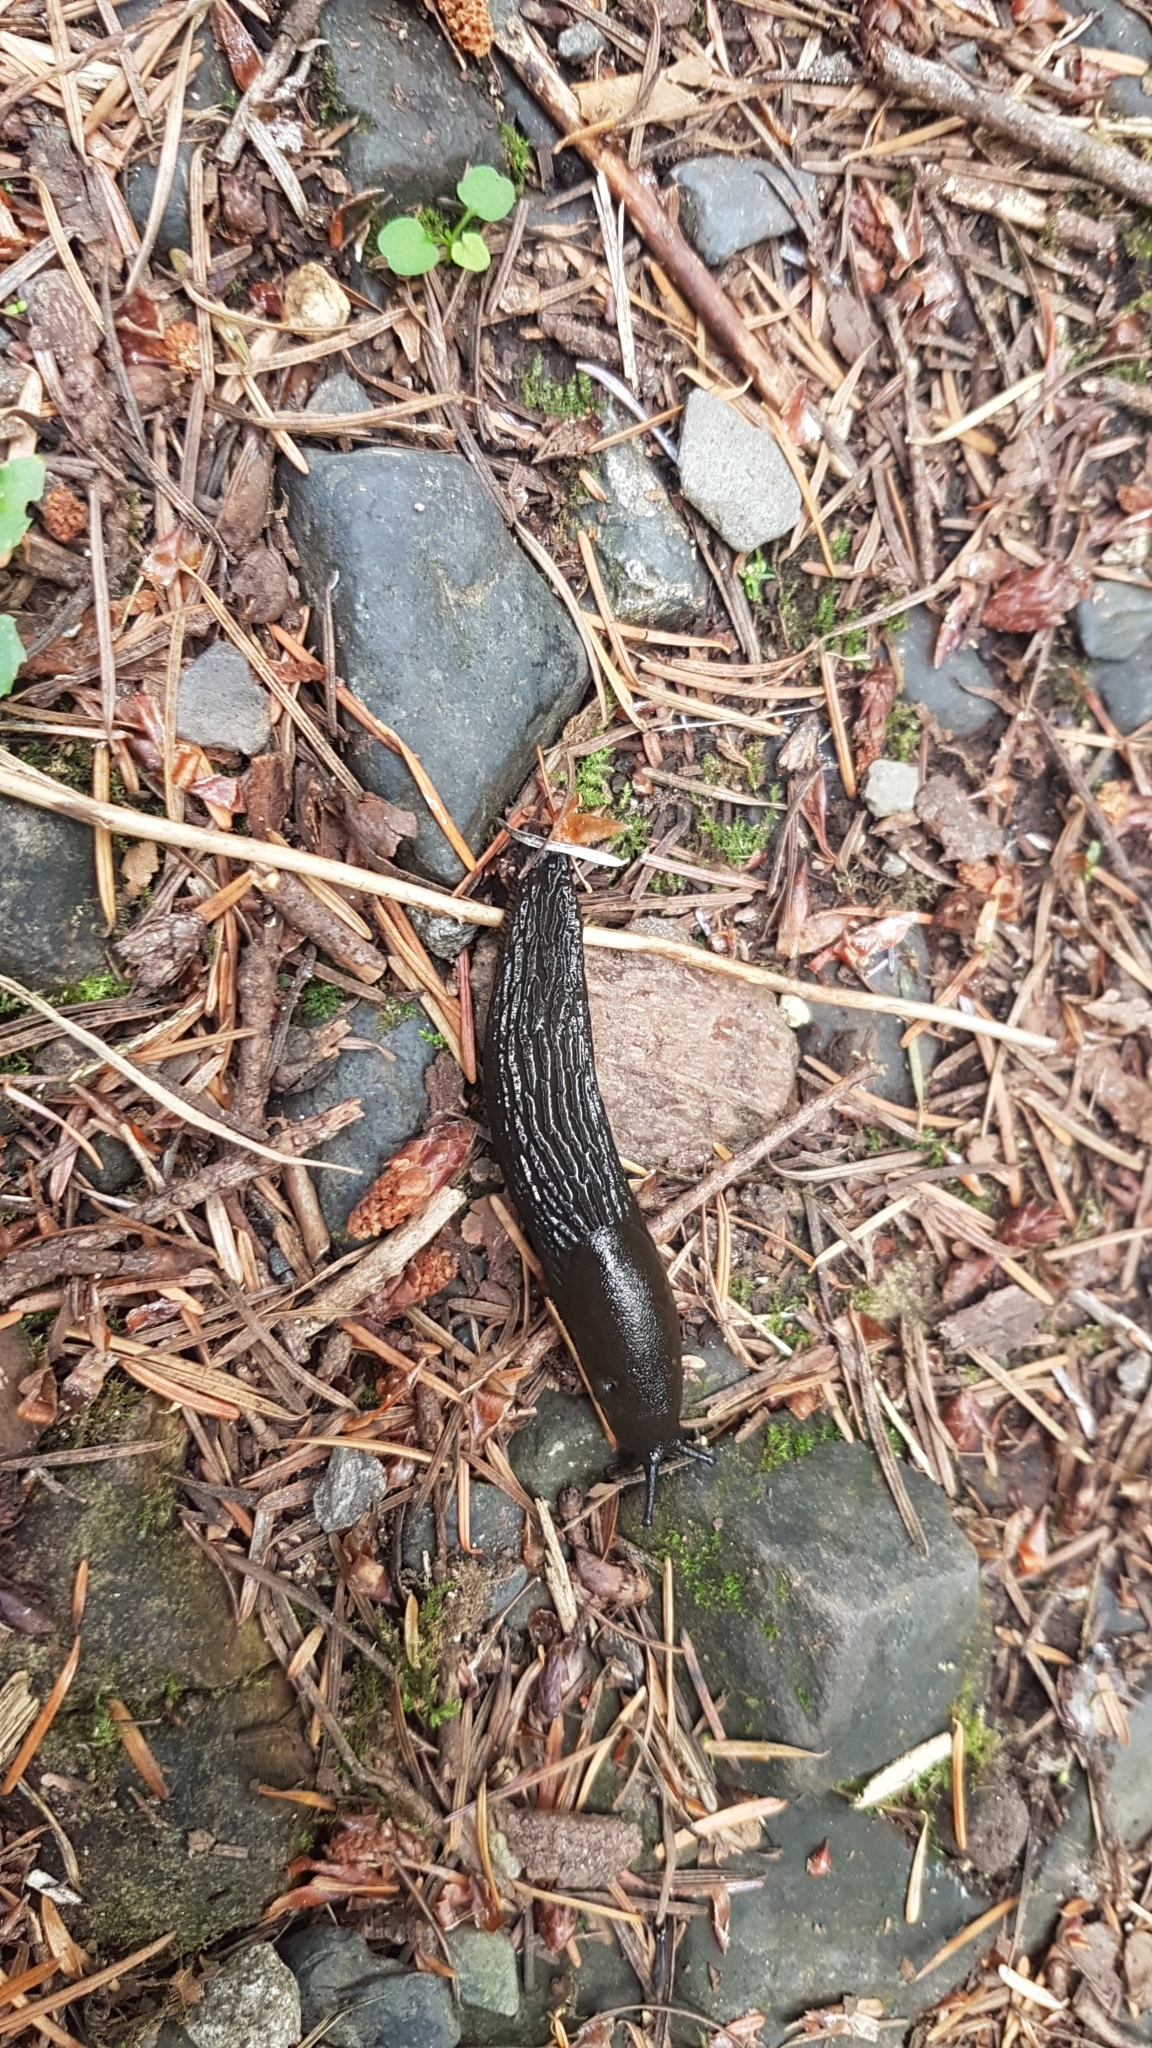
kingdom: Animalia
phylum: Mollusca
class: Gastropoda
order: Stylommatophora
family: Arionidae
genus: Arion
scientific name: Arion
